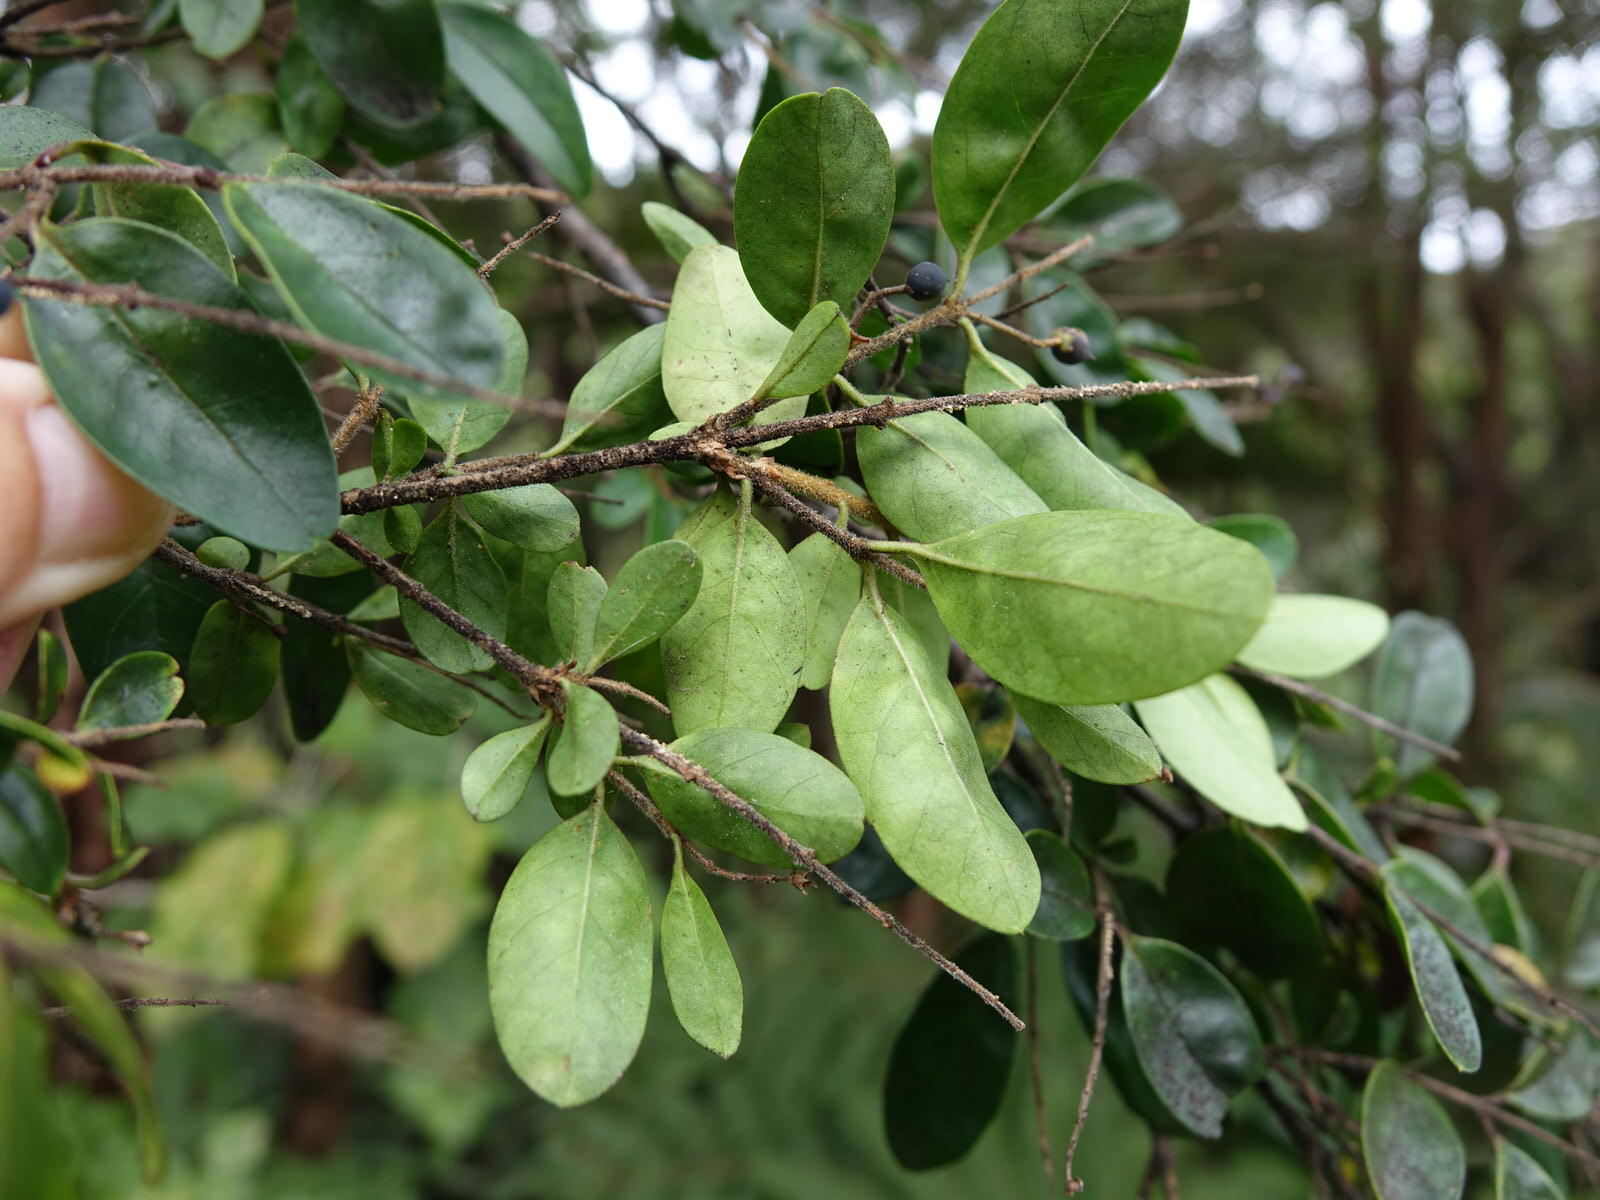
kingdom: Plantae
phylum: Tracheophyta
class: Magnoliopsida
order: Lamiales
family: Oleaceae
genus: Ligustrum
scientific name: Ligustrum sinense
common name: Chinese privet
